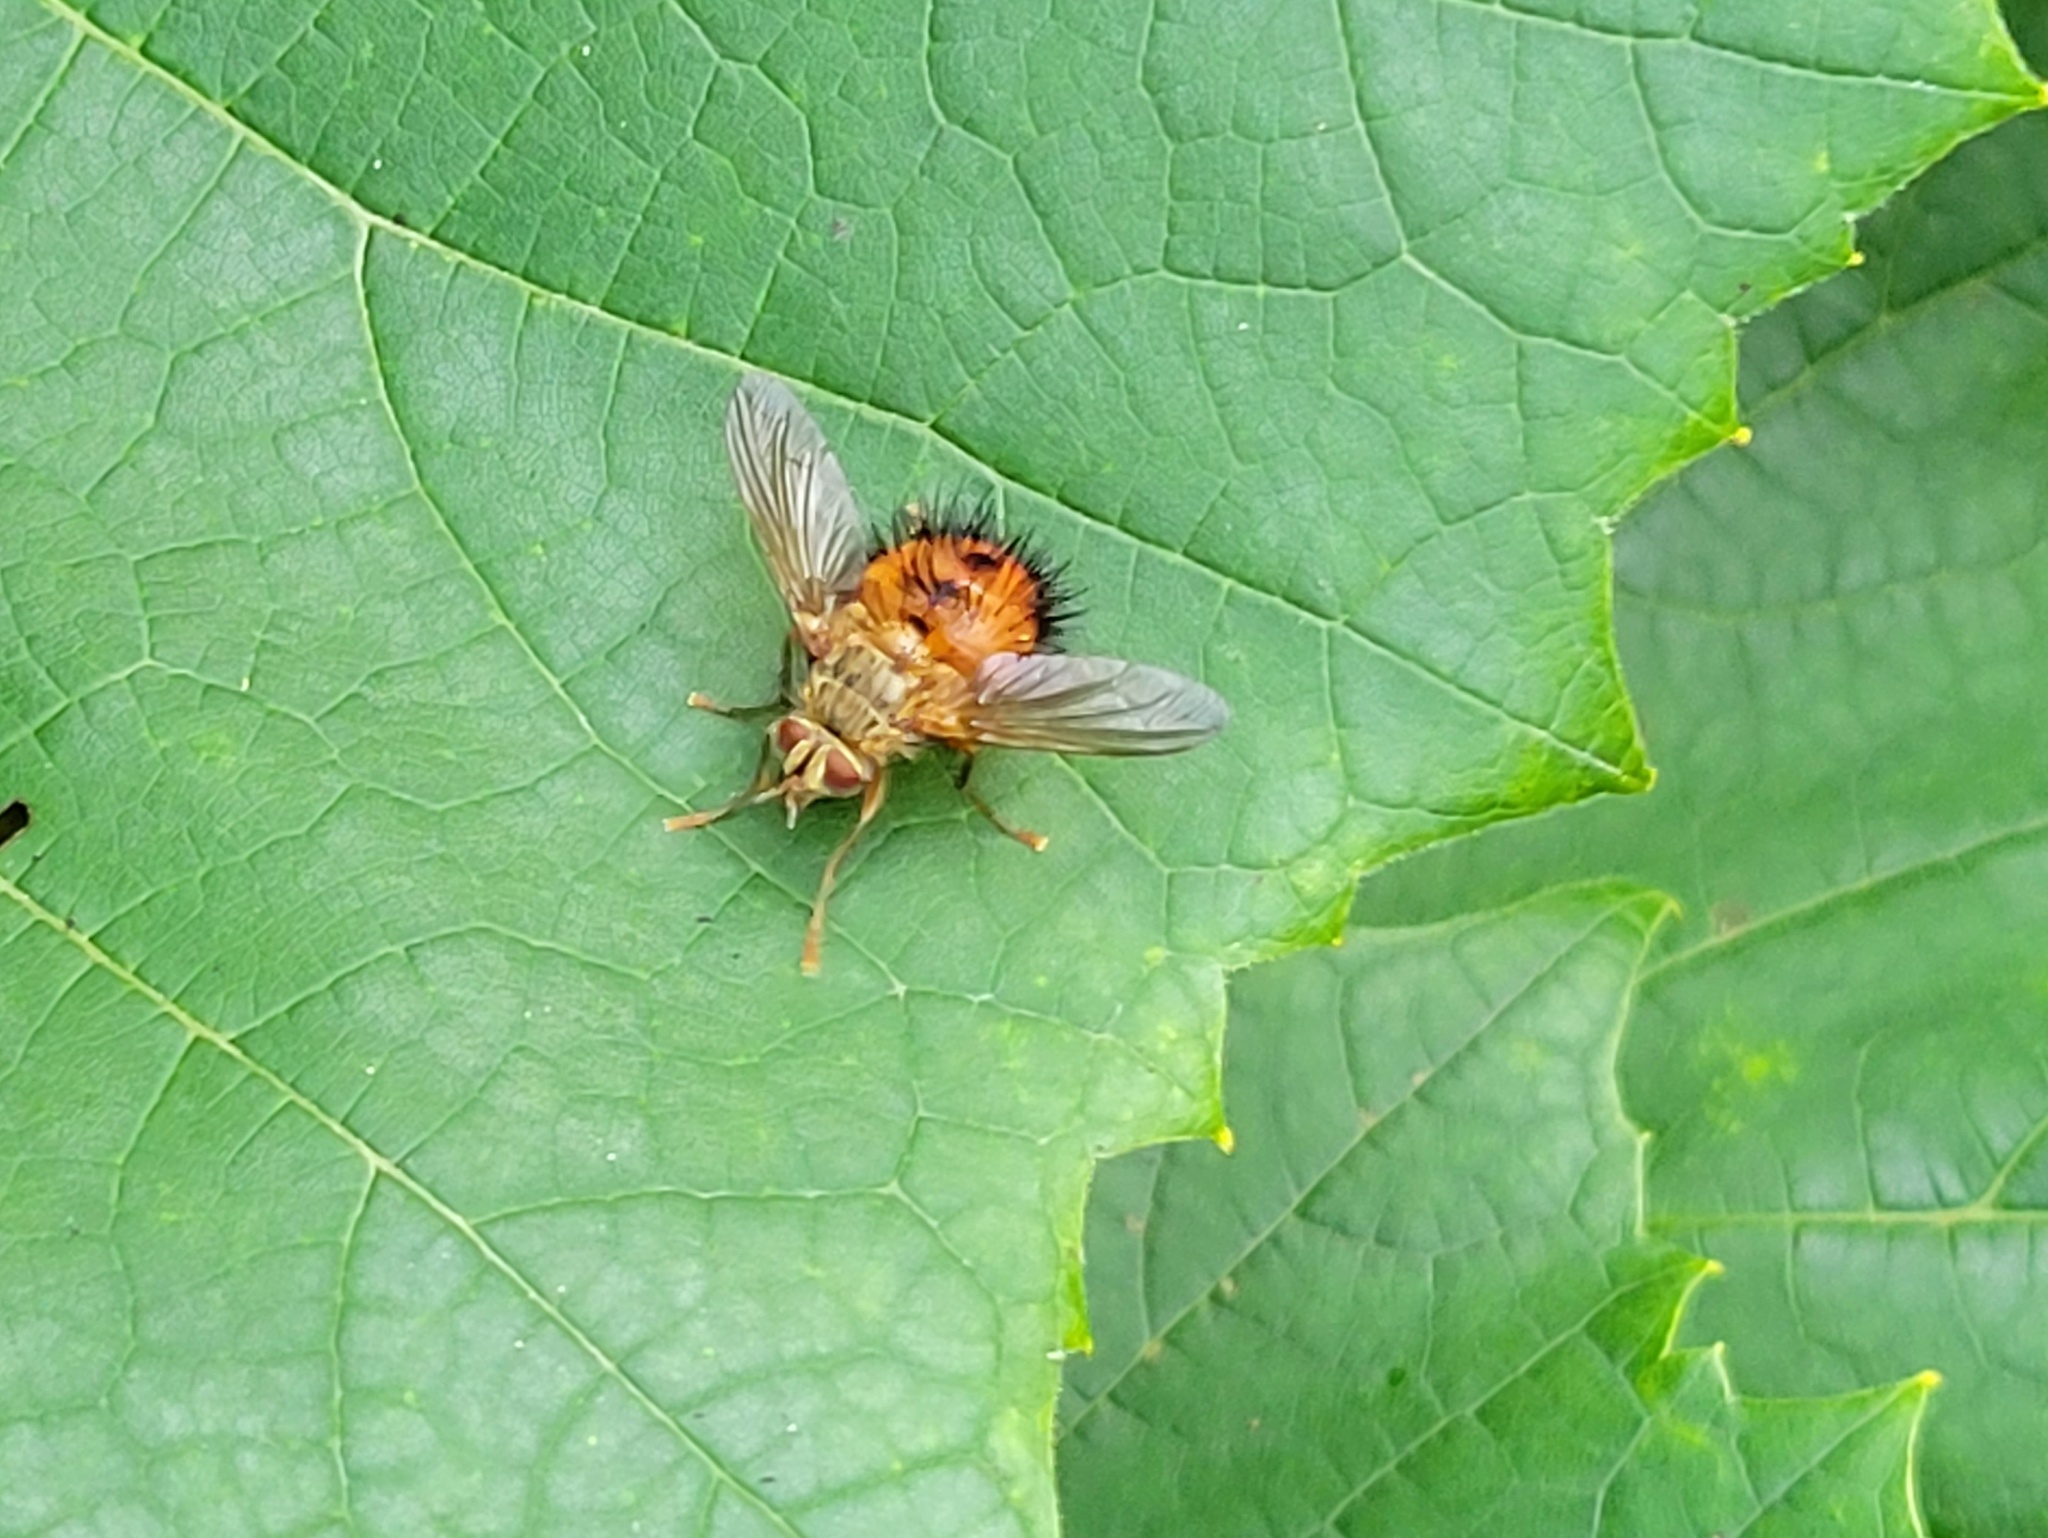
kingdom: Animalia
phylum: Arthropoda
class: Insecta
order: Diptera
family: Tachinidae
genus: Hystricia
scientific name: Hystricia abrupta
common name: Tomato bristle fly
